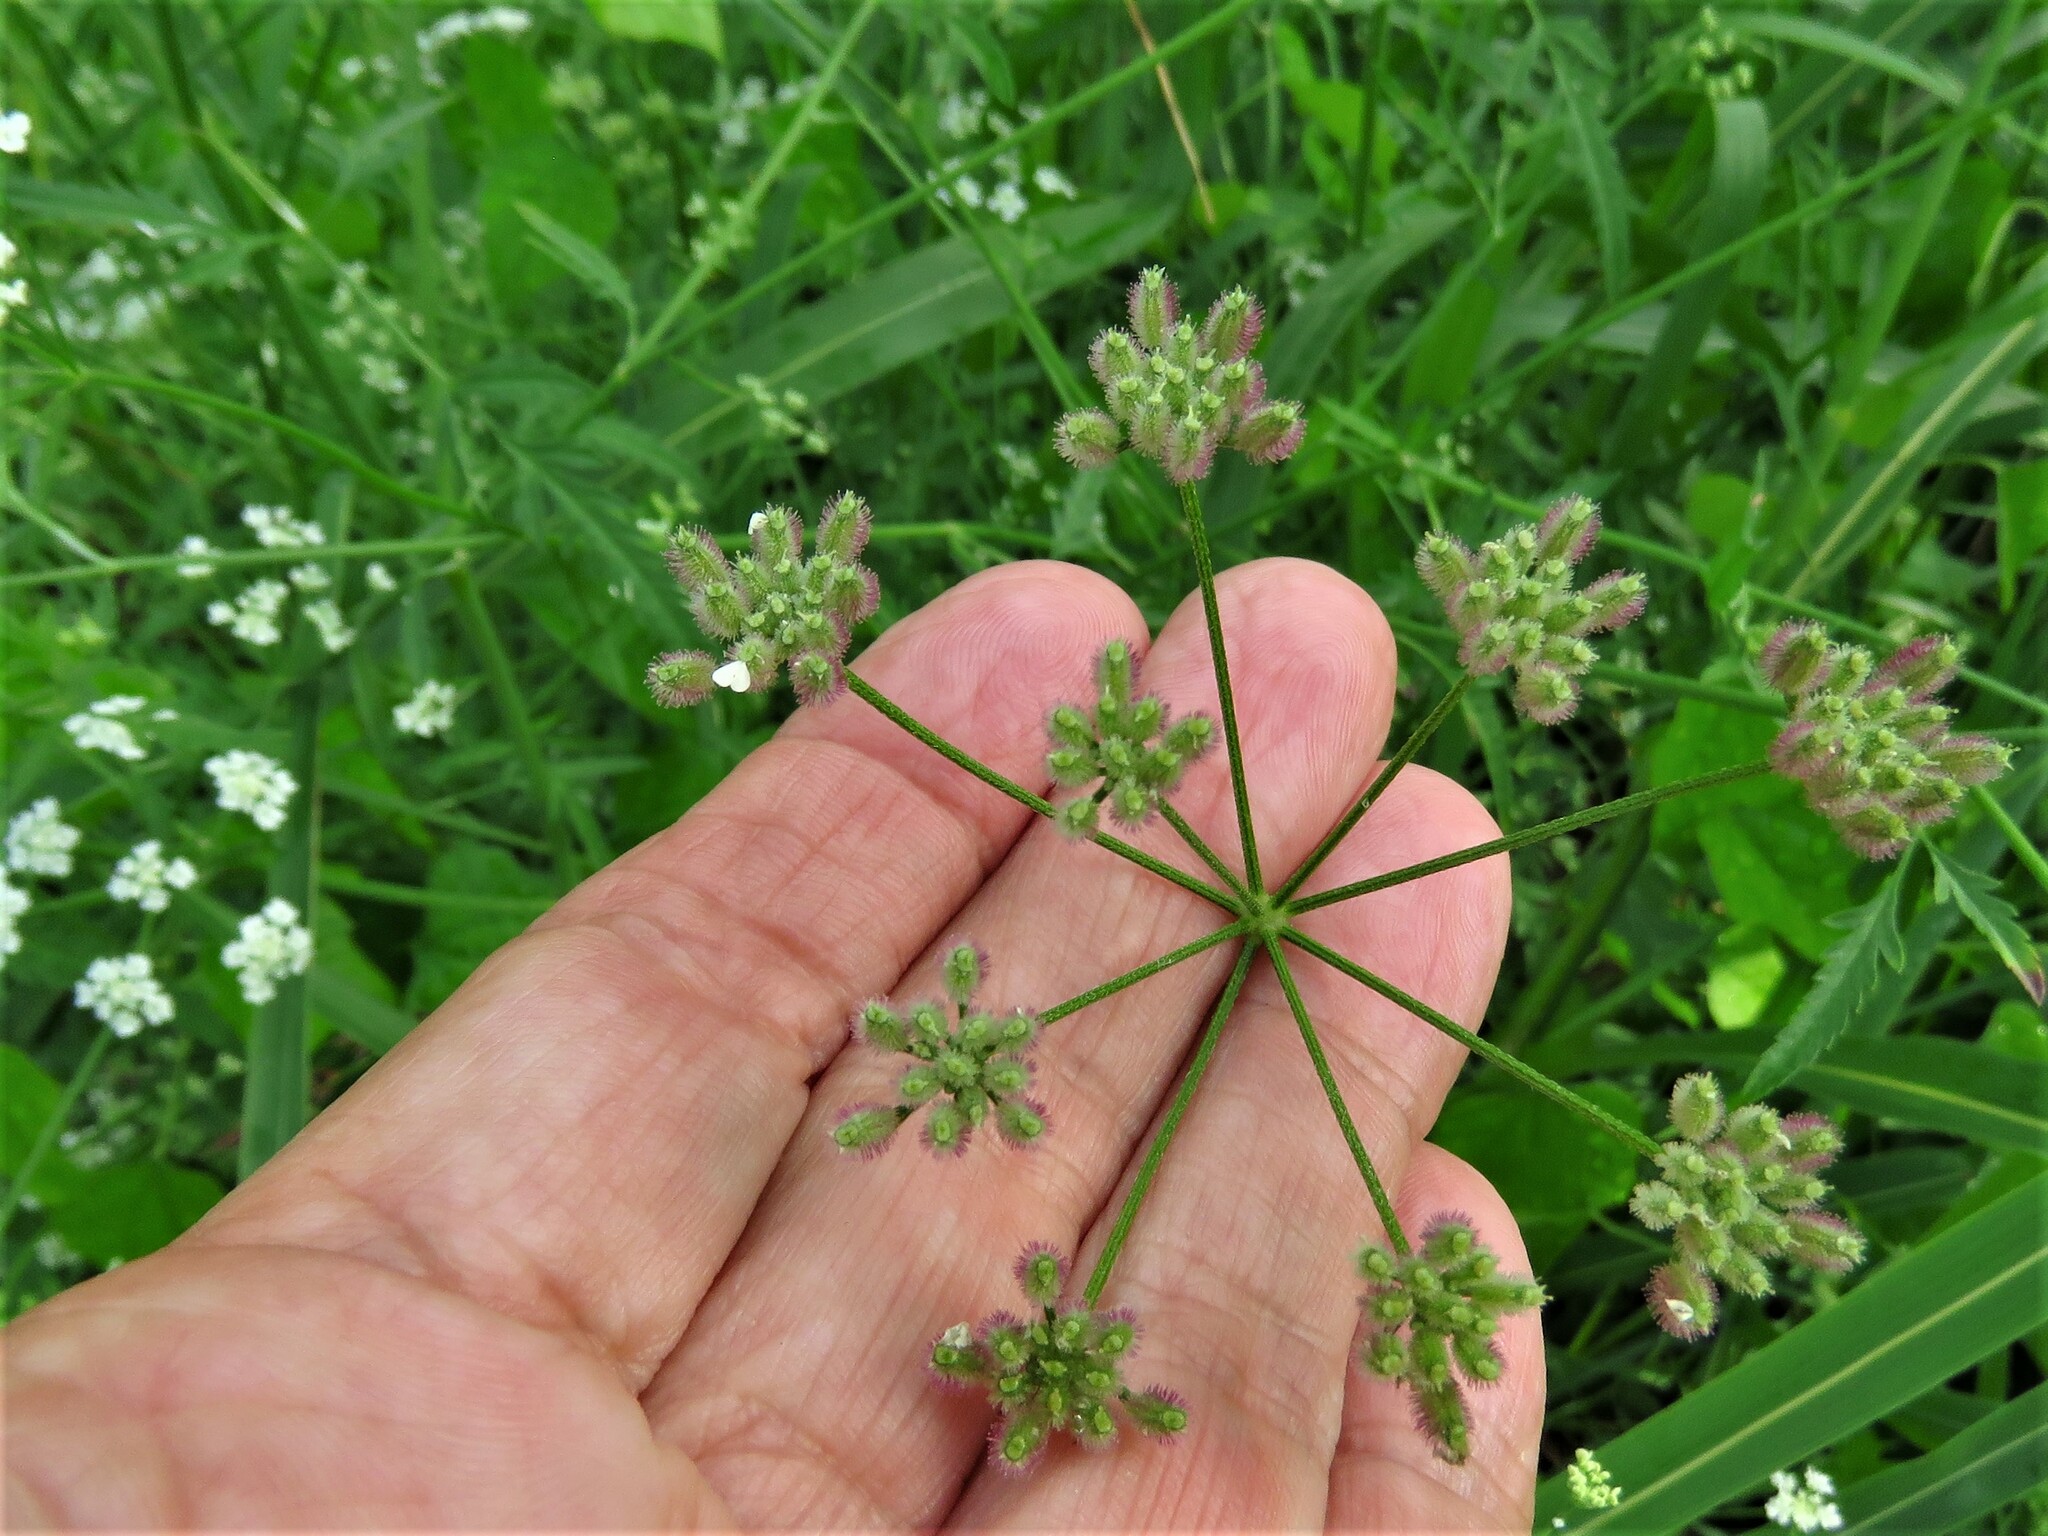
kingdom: Plantae
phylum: Tracheophyta
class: Magnoliopsida
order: Apiales
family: Apiaceae
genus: Torilis
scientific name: Torilis arvensis
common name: Spreading hedge-parsley
